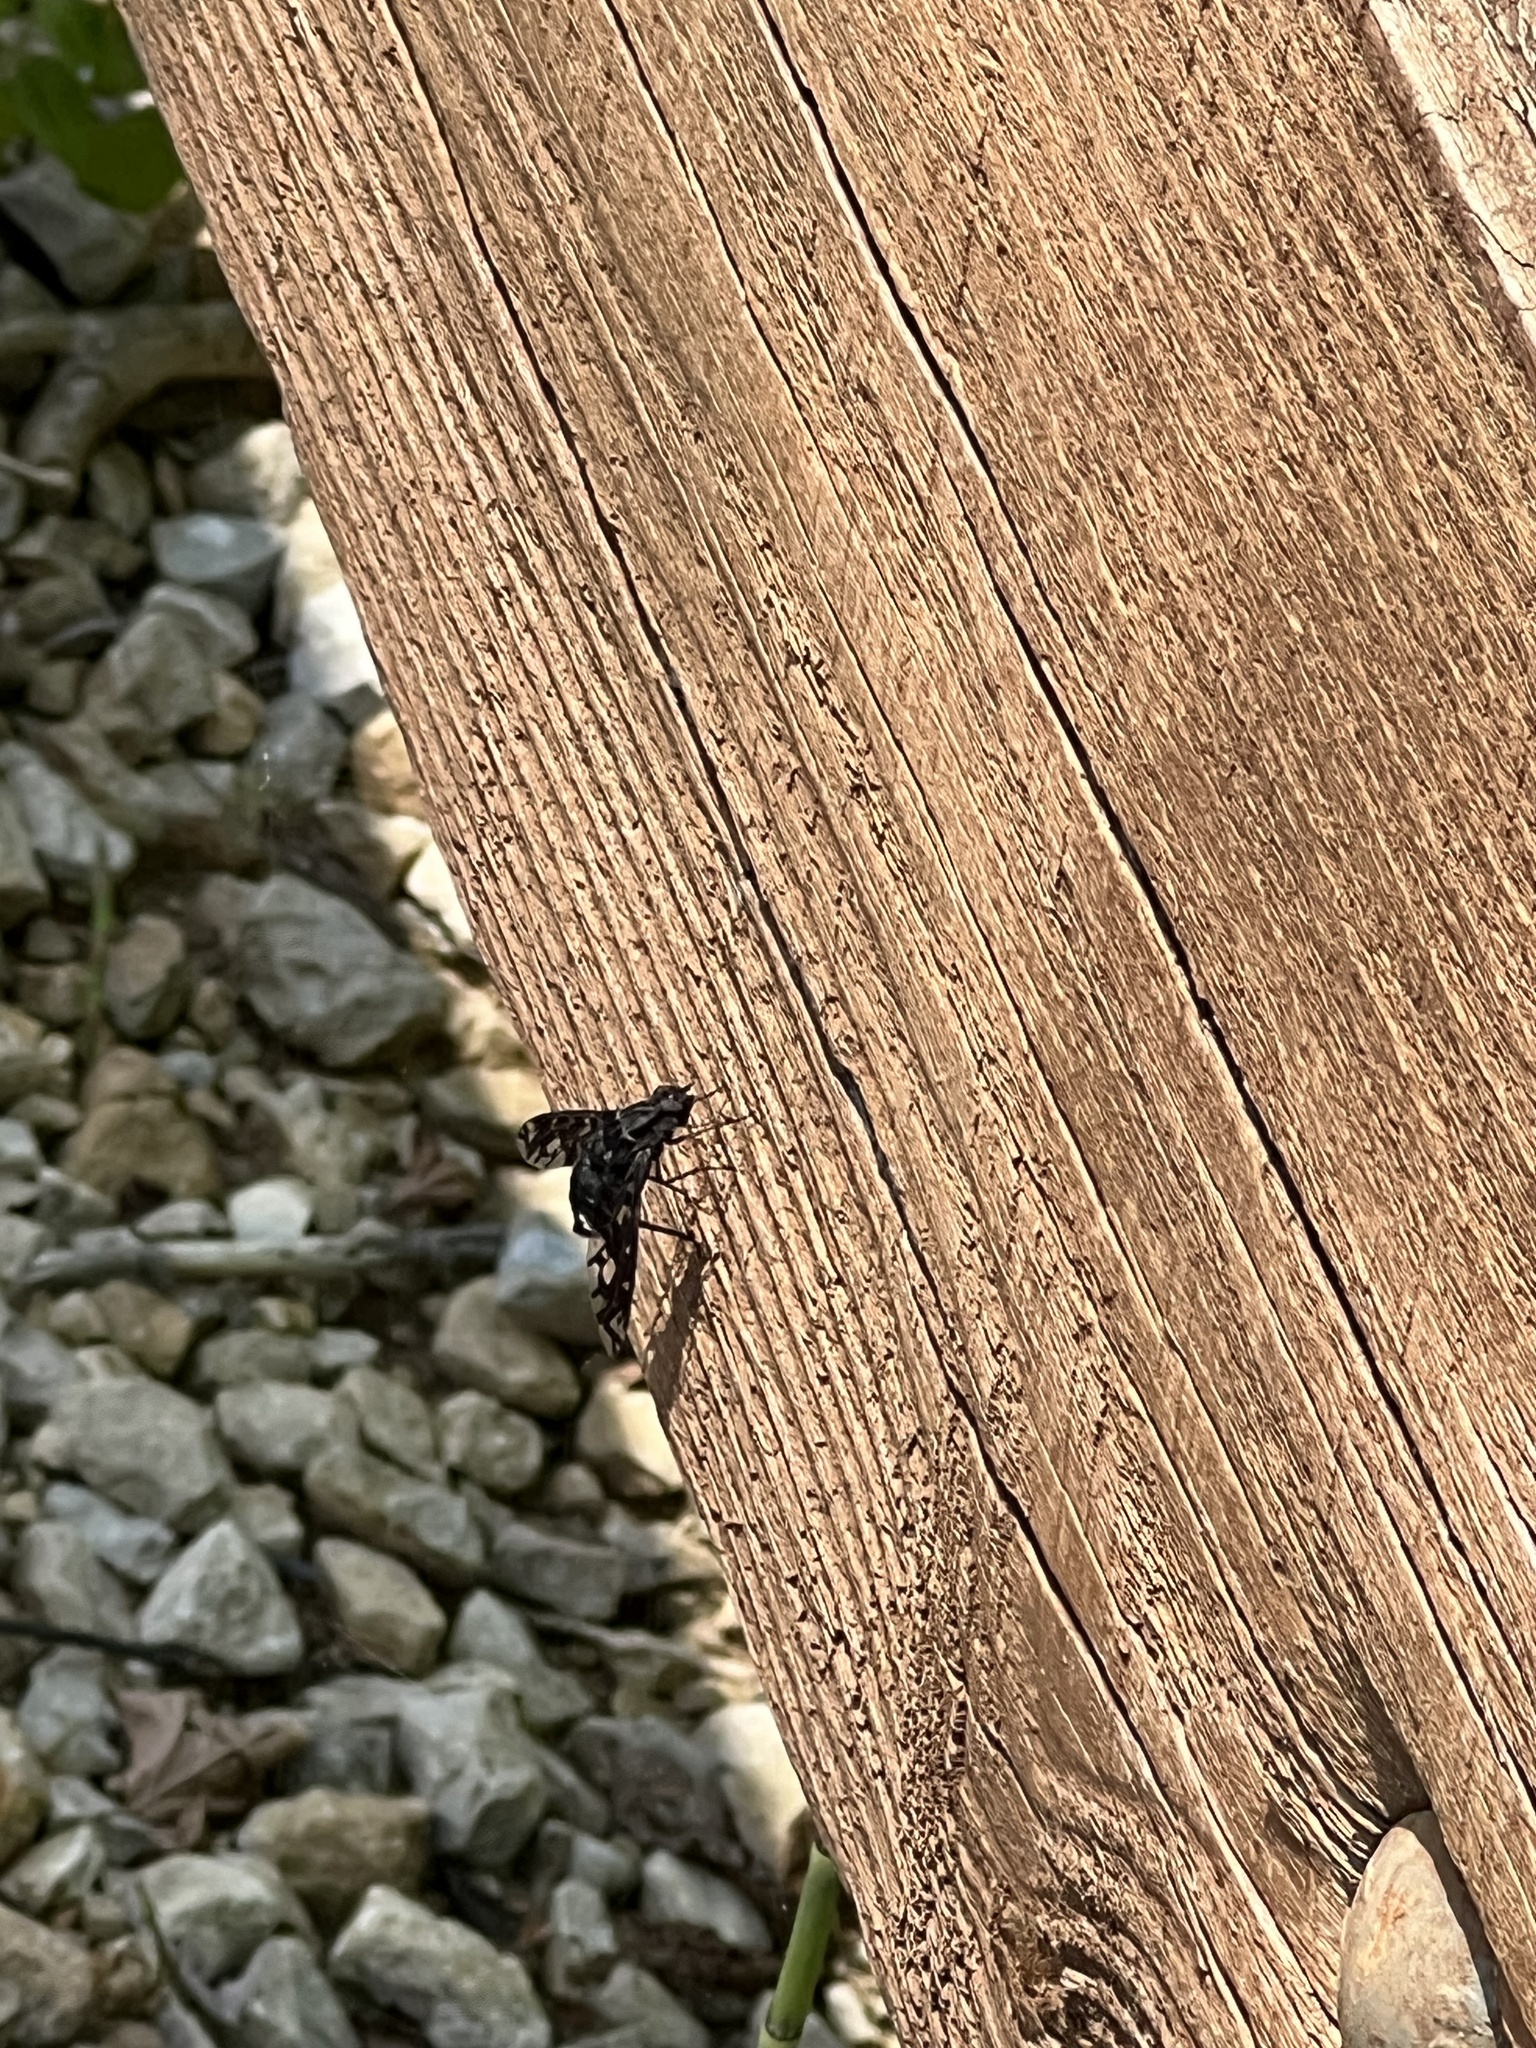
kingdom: Animalia
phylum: Arthropoda
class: Insecta
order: Diptera
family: Bombyliidae
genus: Xenox
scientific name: Xenox tigrinus
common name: Tiger bee fly
